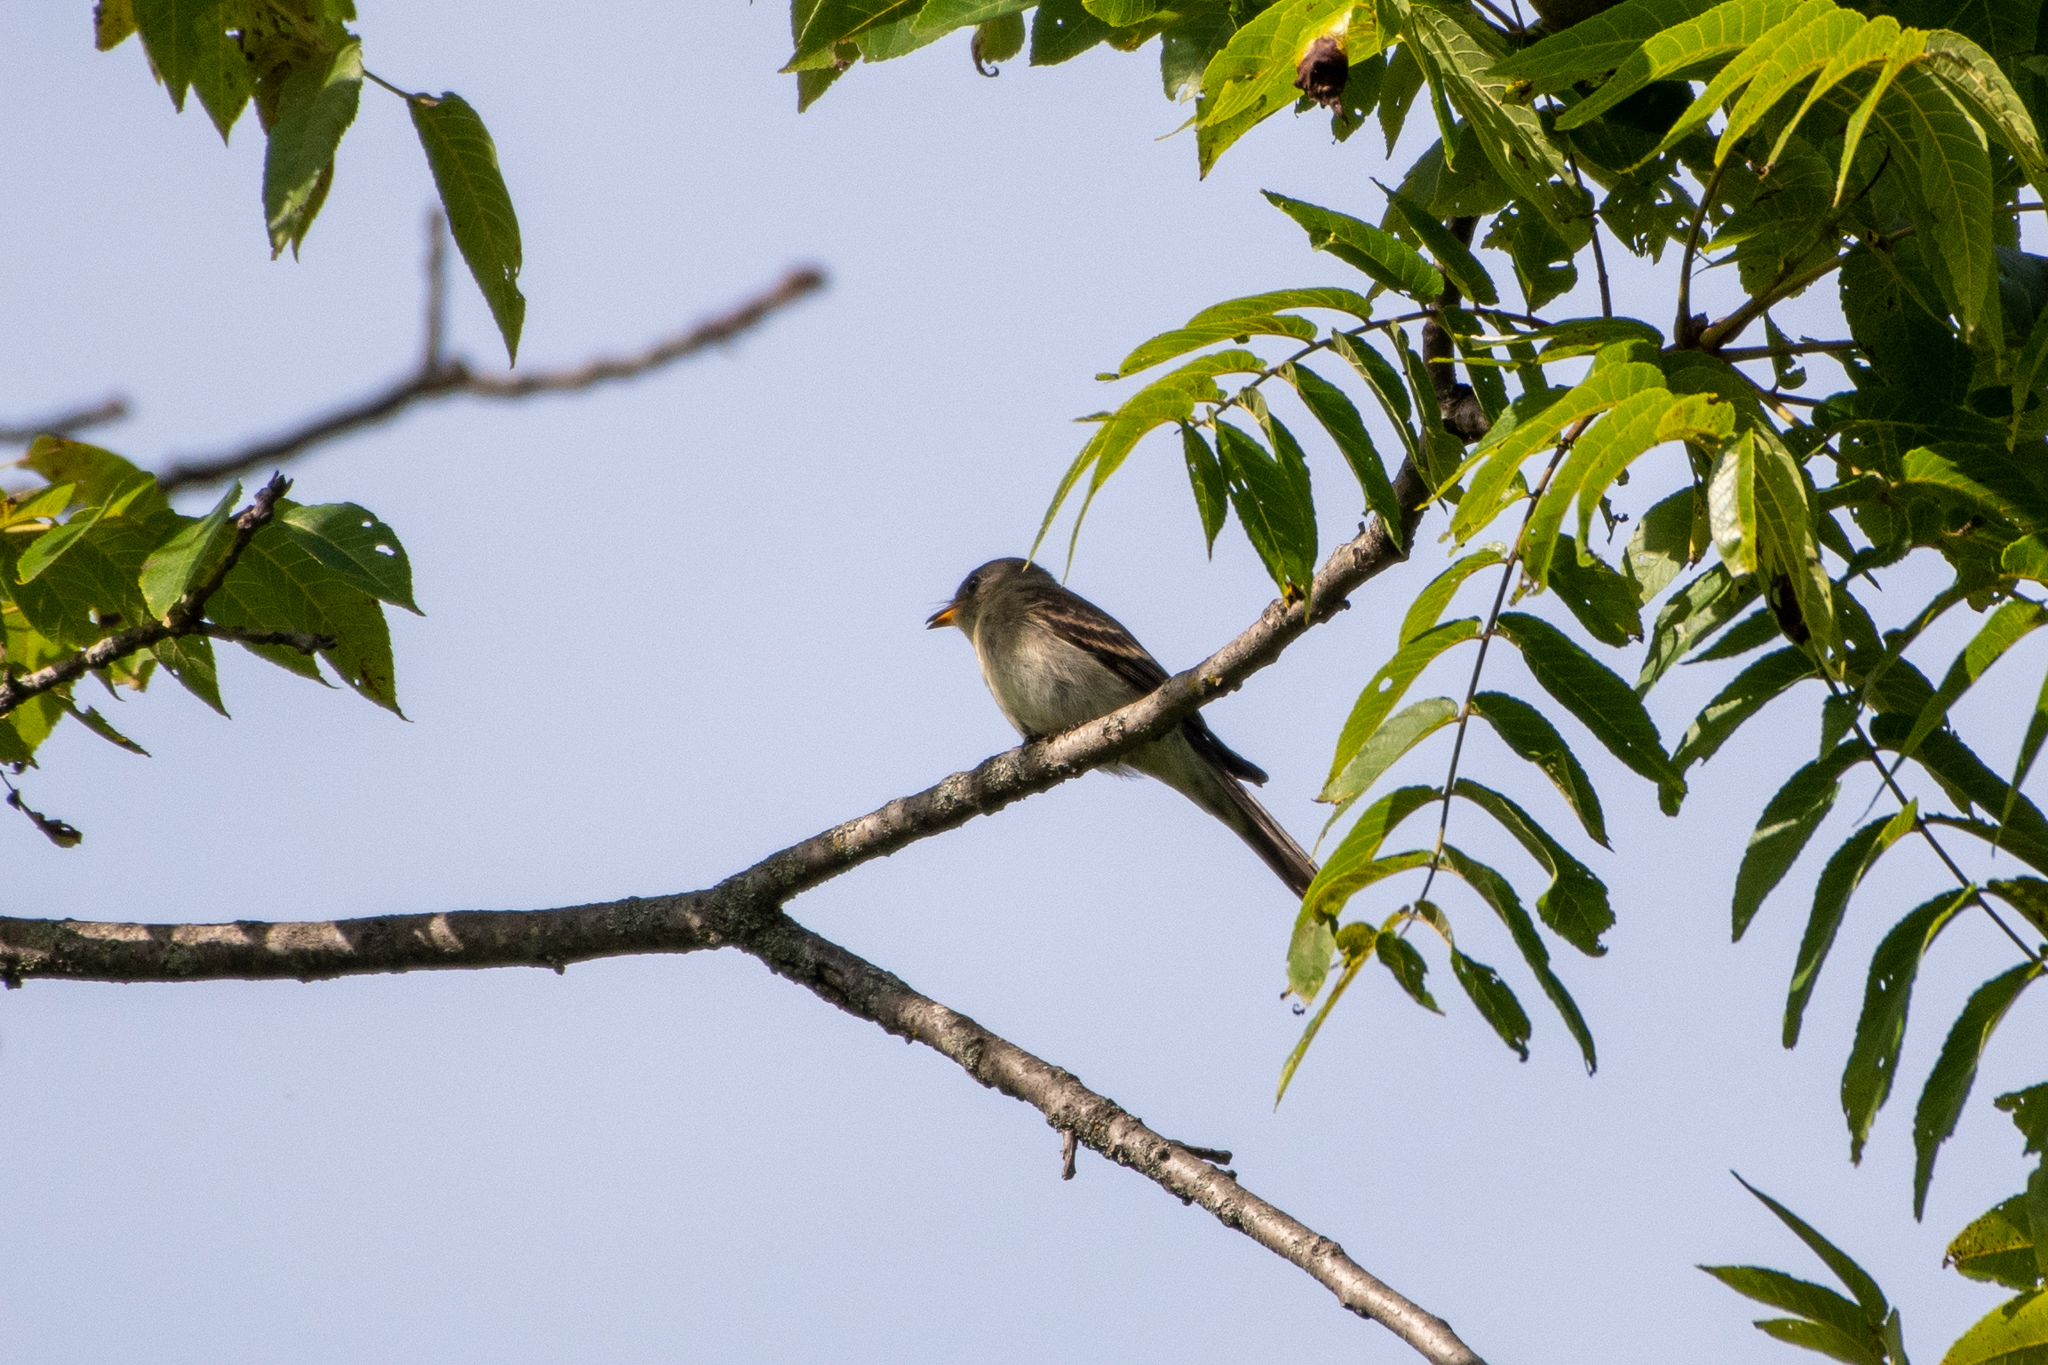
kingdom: Animalia
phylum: Chordata
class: Aves
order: Passeriformes
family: Tyrannidae
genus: Contopus
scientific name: Contopus virens
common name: Eastern wood-pewee
